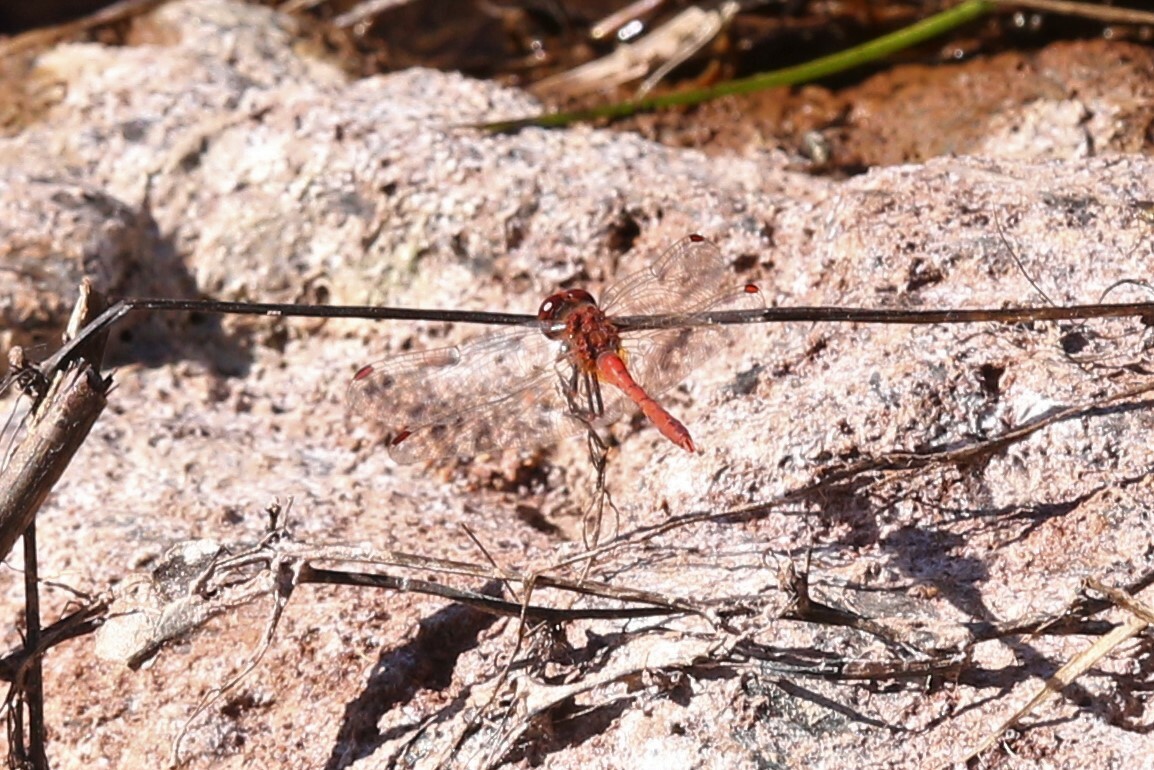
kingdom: Animalia
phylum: Arthropoda
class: Insecta
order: Odonata
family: Libellulidae
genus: Diplacodes
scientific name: Diplacodes bipunctata
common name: Red percher dragonfly
